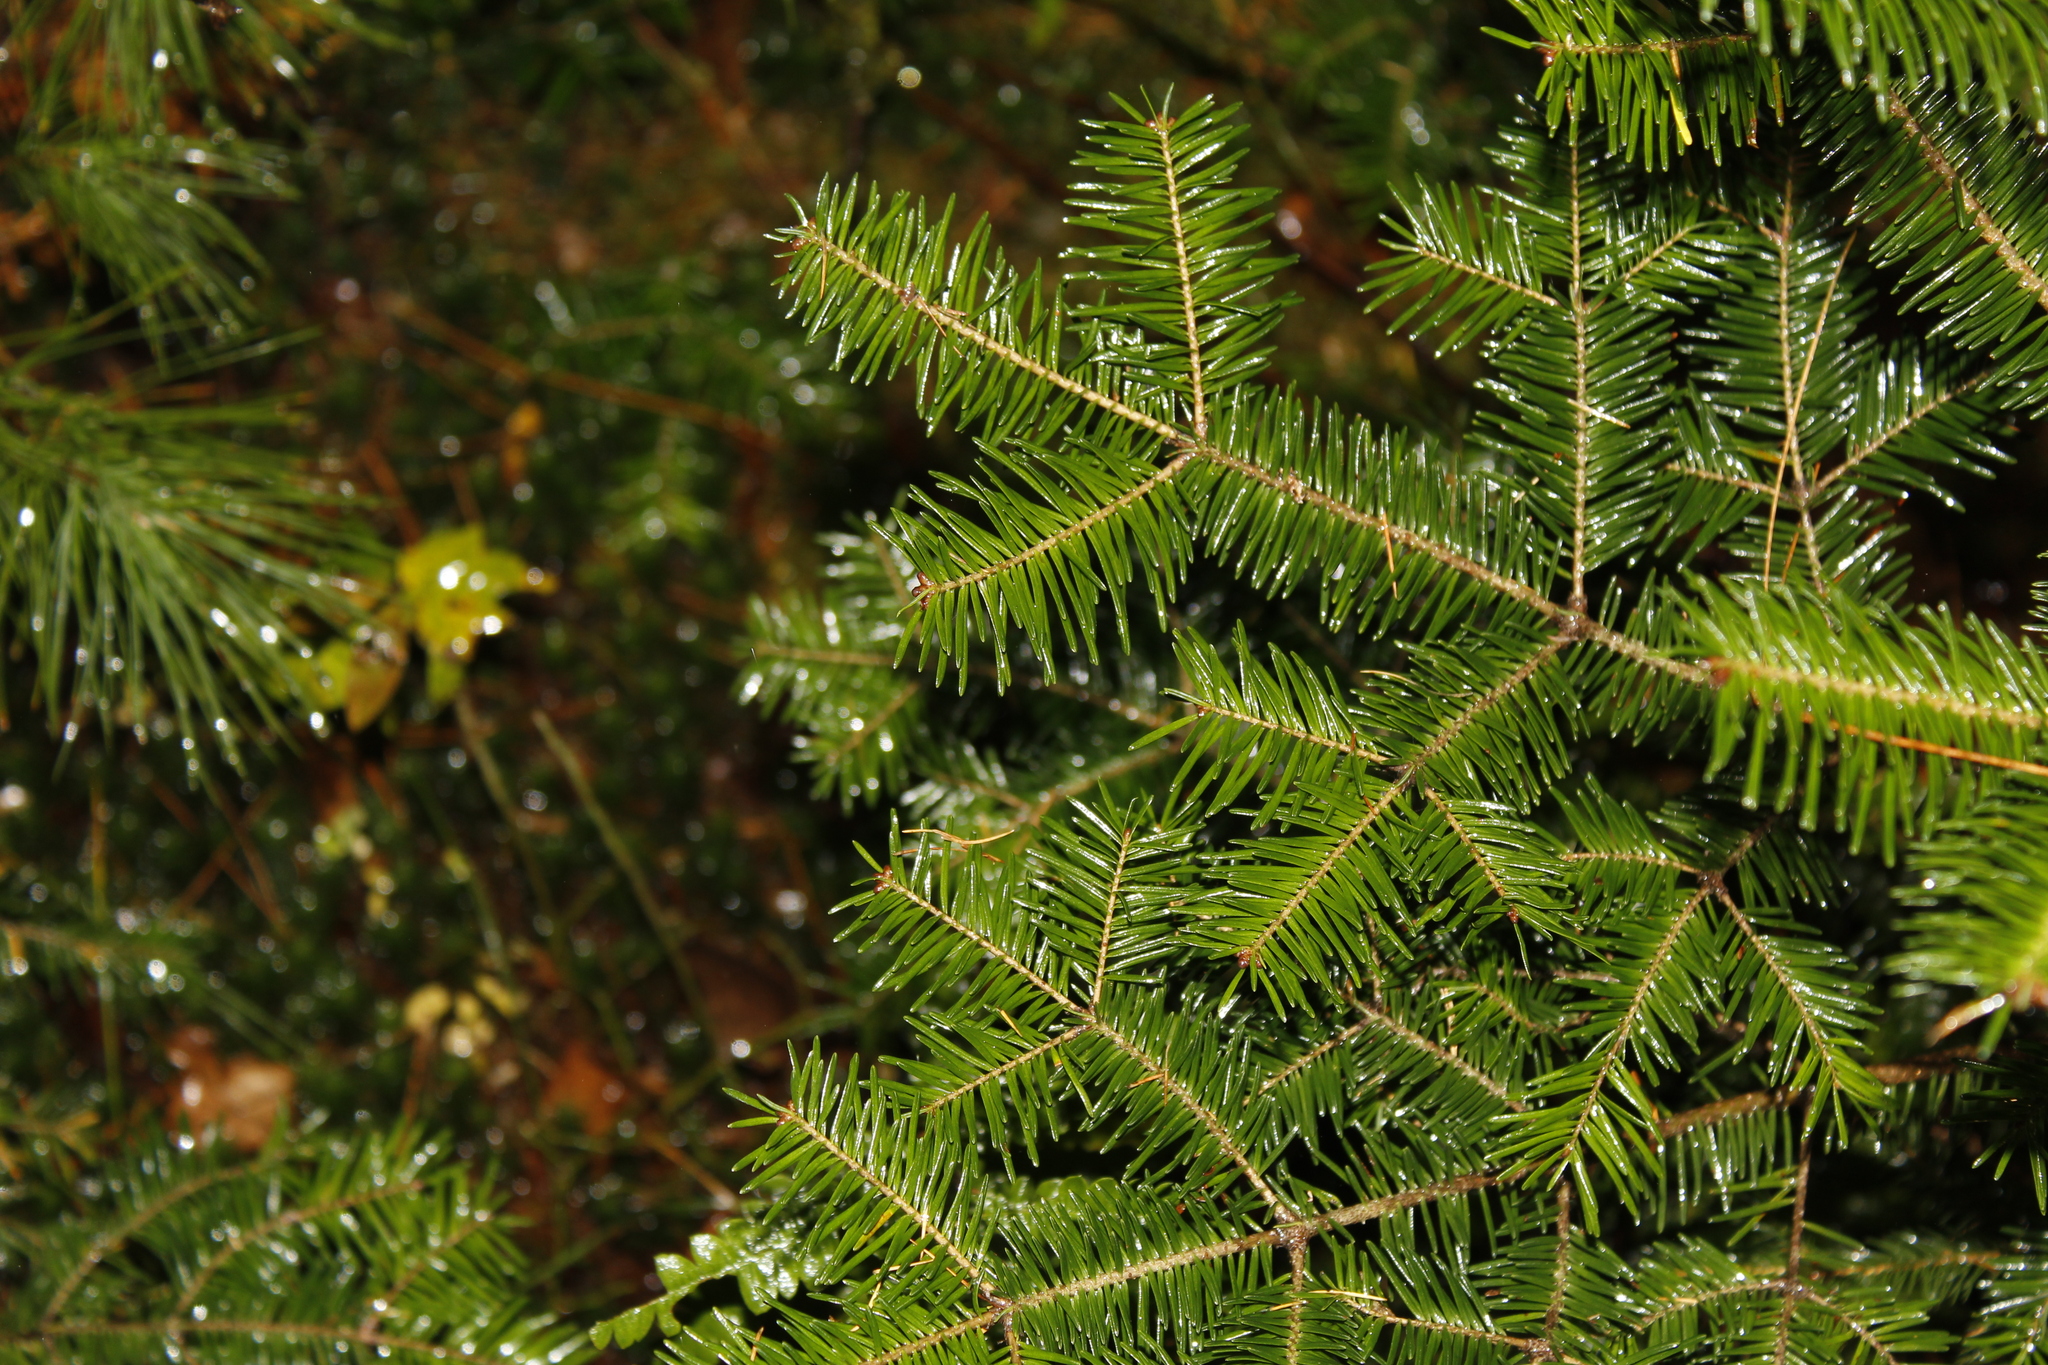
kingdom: Plantae
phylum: Tracheophyta
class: Pinopsida
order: Pinales
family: Pinaceae
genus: Abies
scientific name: Abies balsamea
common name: Balsam fir
